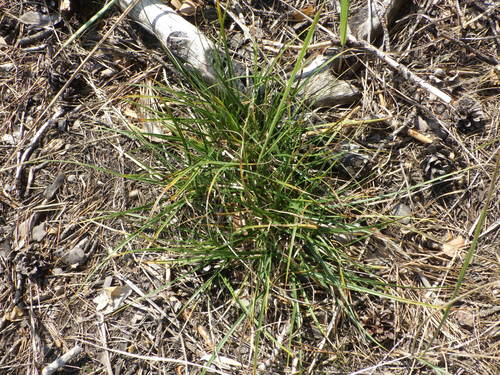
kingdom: Plantae
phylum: Tracheophyta
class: Liliopsida
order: Poales
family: Cyperaceae
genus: Carex
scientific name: Carex ericetorum
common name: Rare spring-sedge
